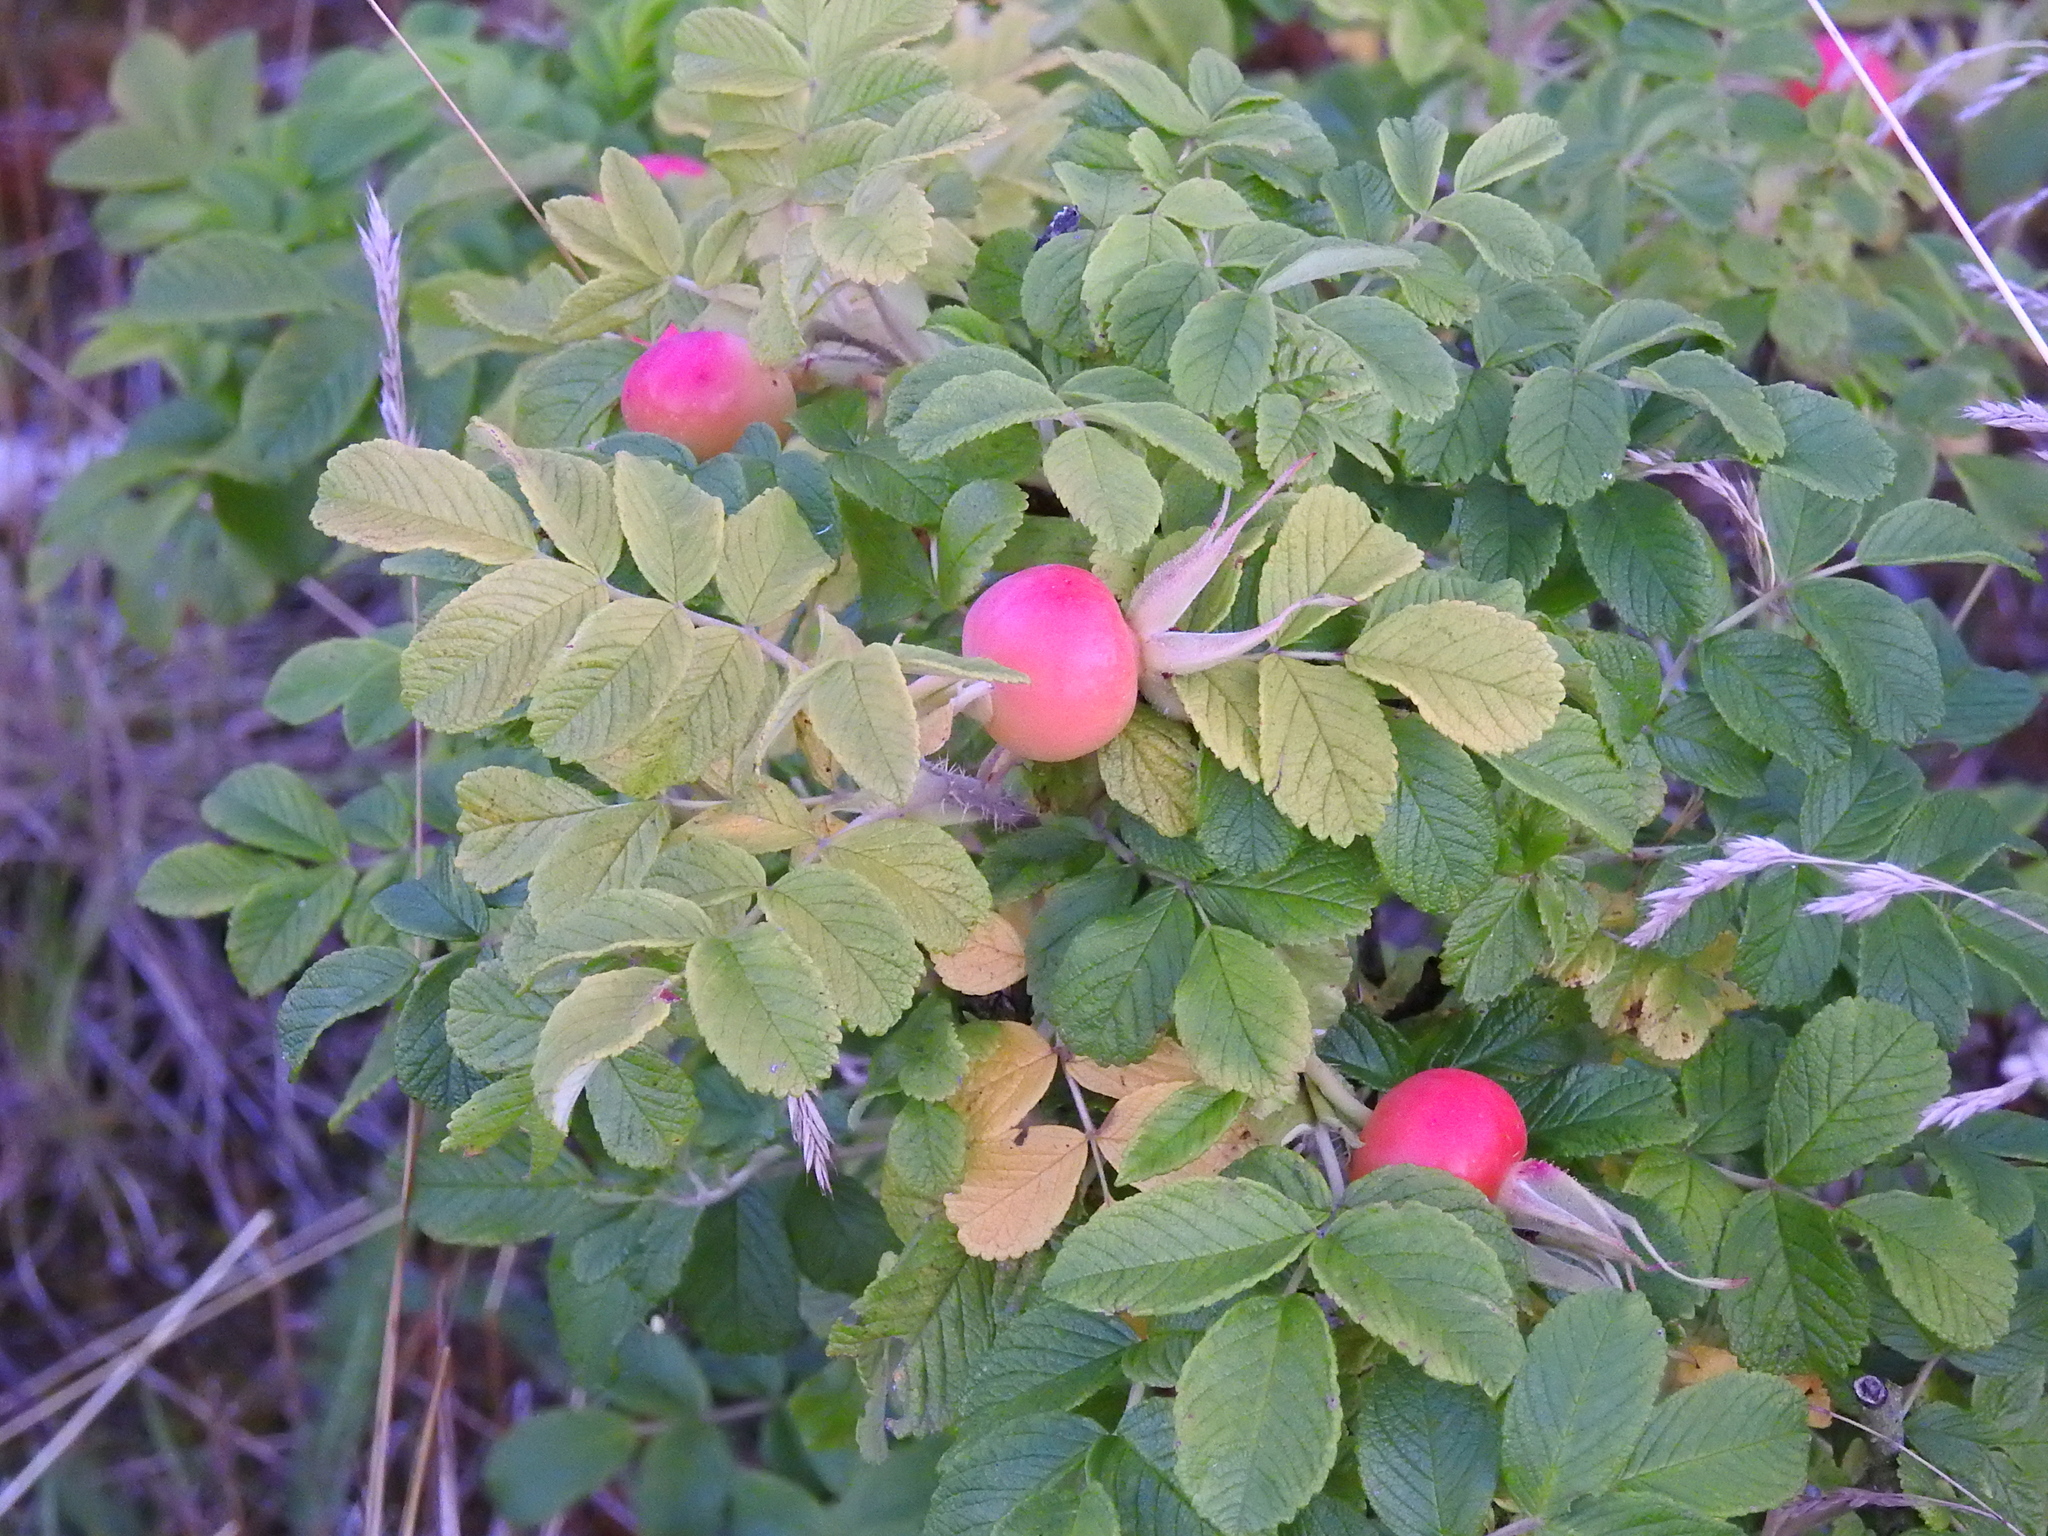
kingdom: Plantae
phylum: Tracheophyta
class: Magnoliopsida
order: Rosales
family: Rosaceae
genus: Rosa
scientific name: Rosa rugosa
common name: Japanese rose
